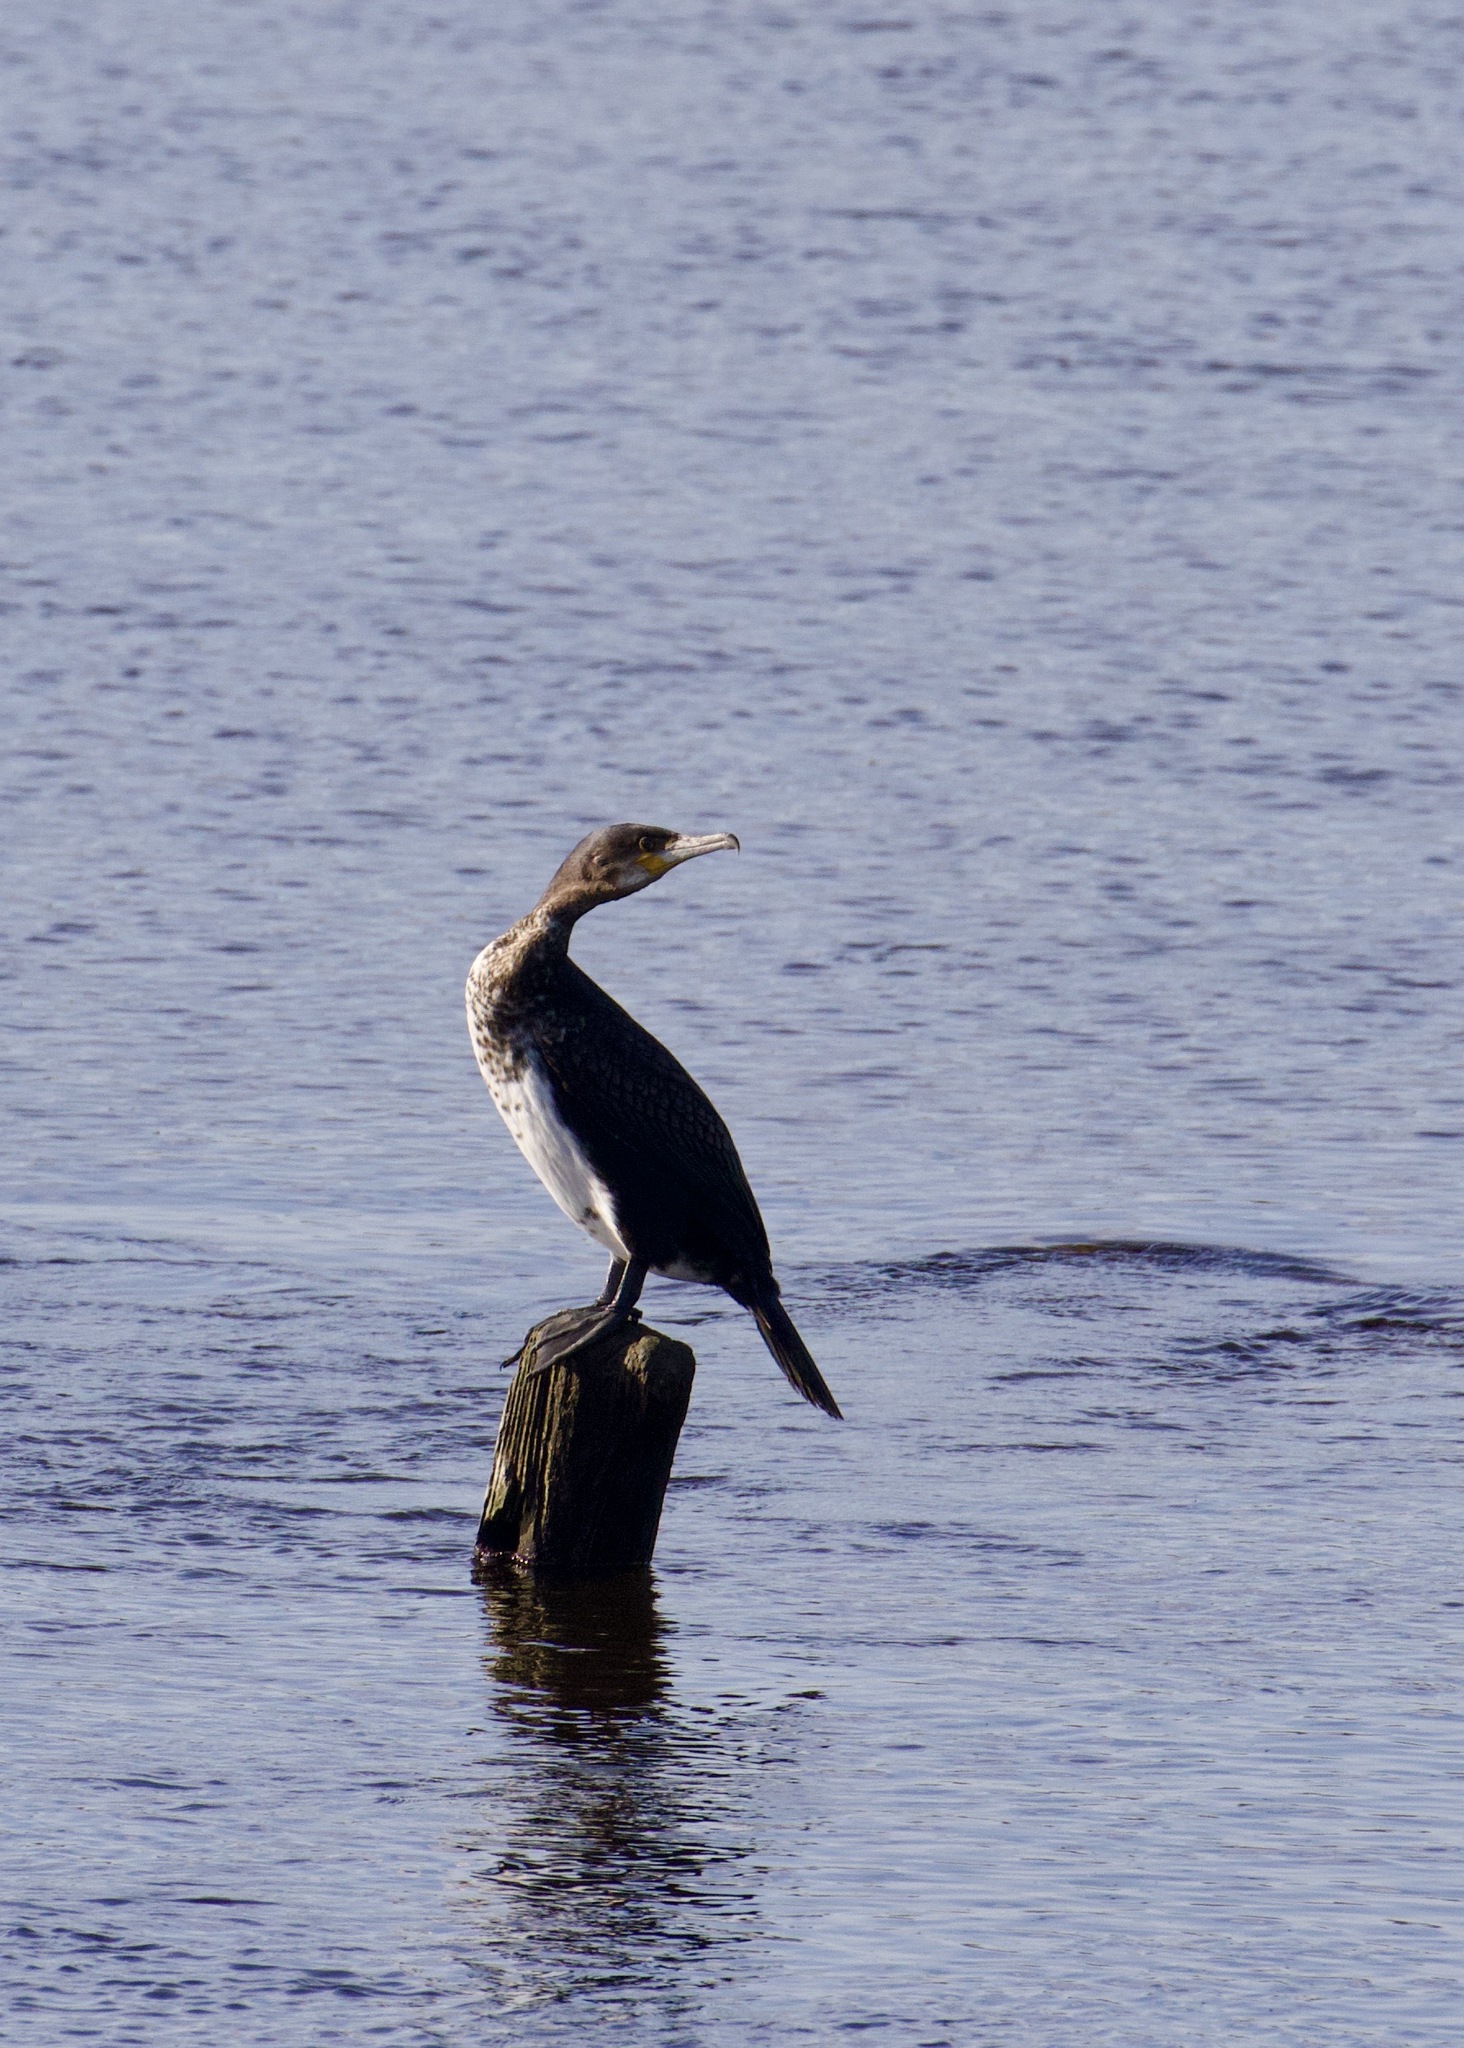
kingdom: Animalia
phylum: Chordata
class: Aves
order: Suliformes
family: Phalacrocoracidae
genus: Phalacrocorax
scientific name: Phalacrocorax carbo
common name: Great cormorant
